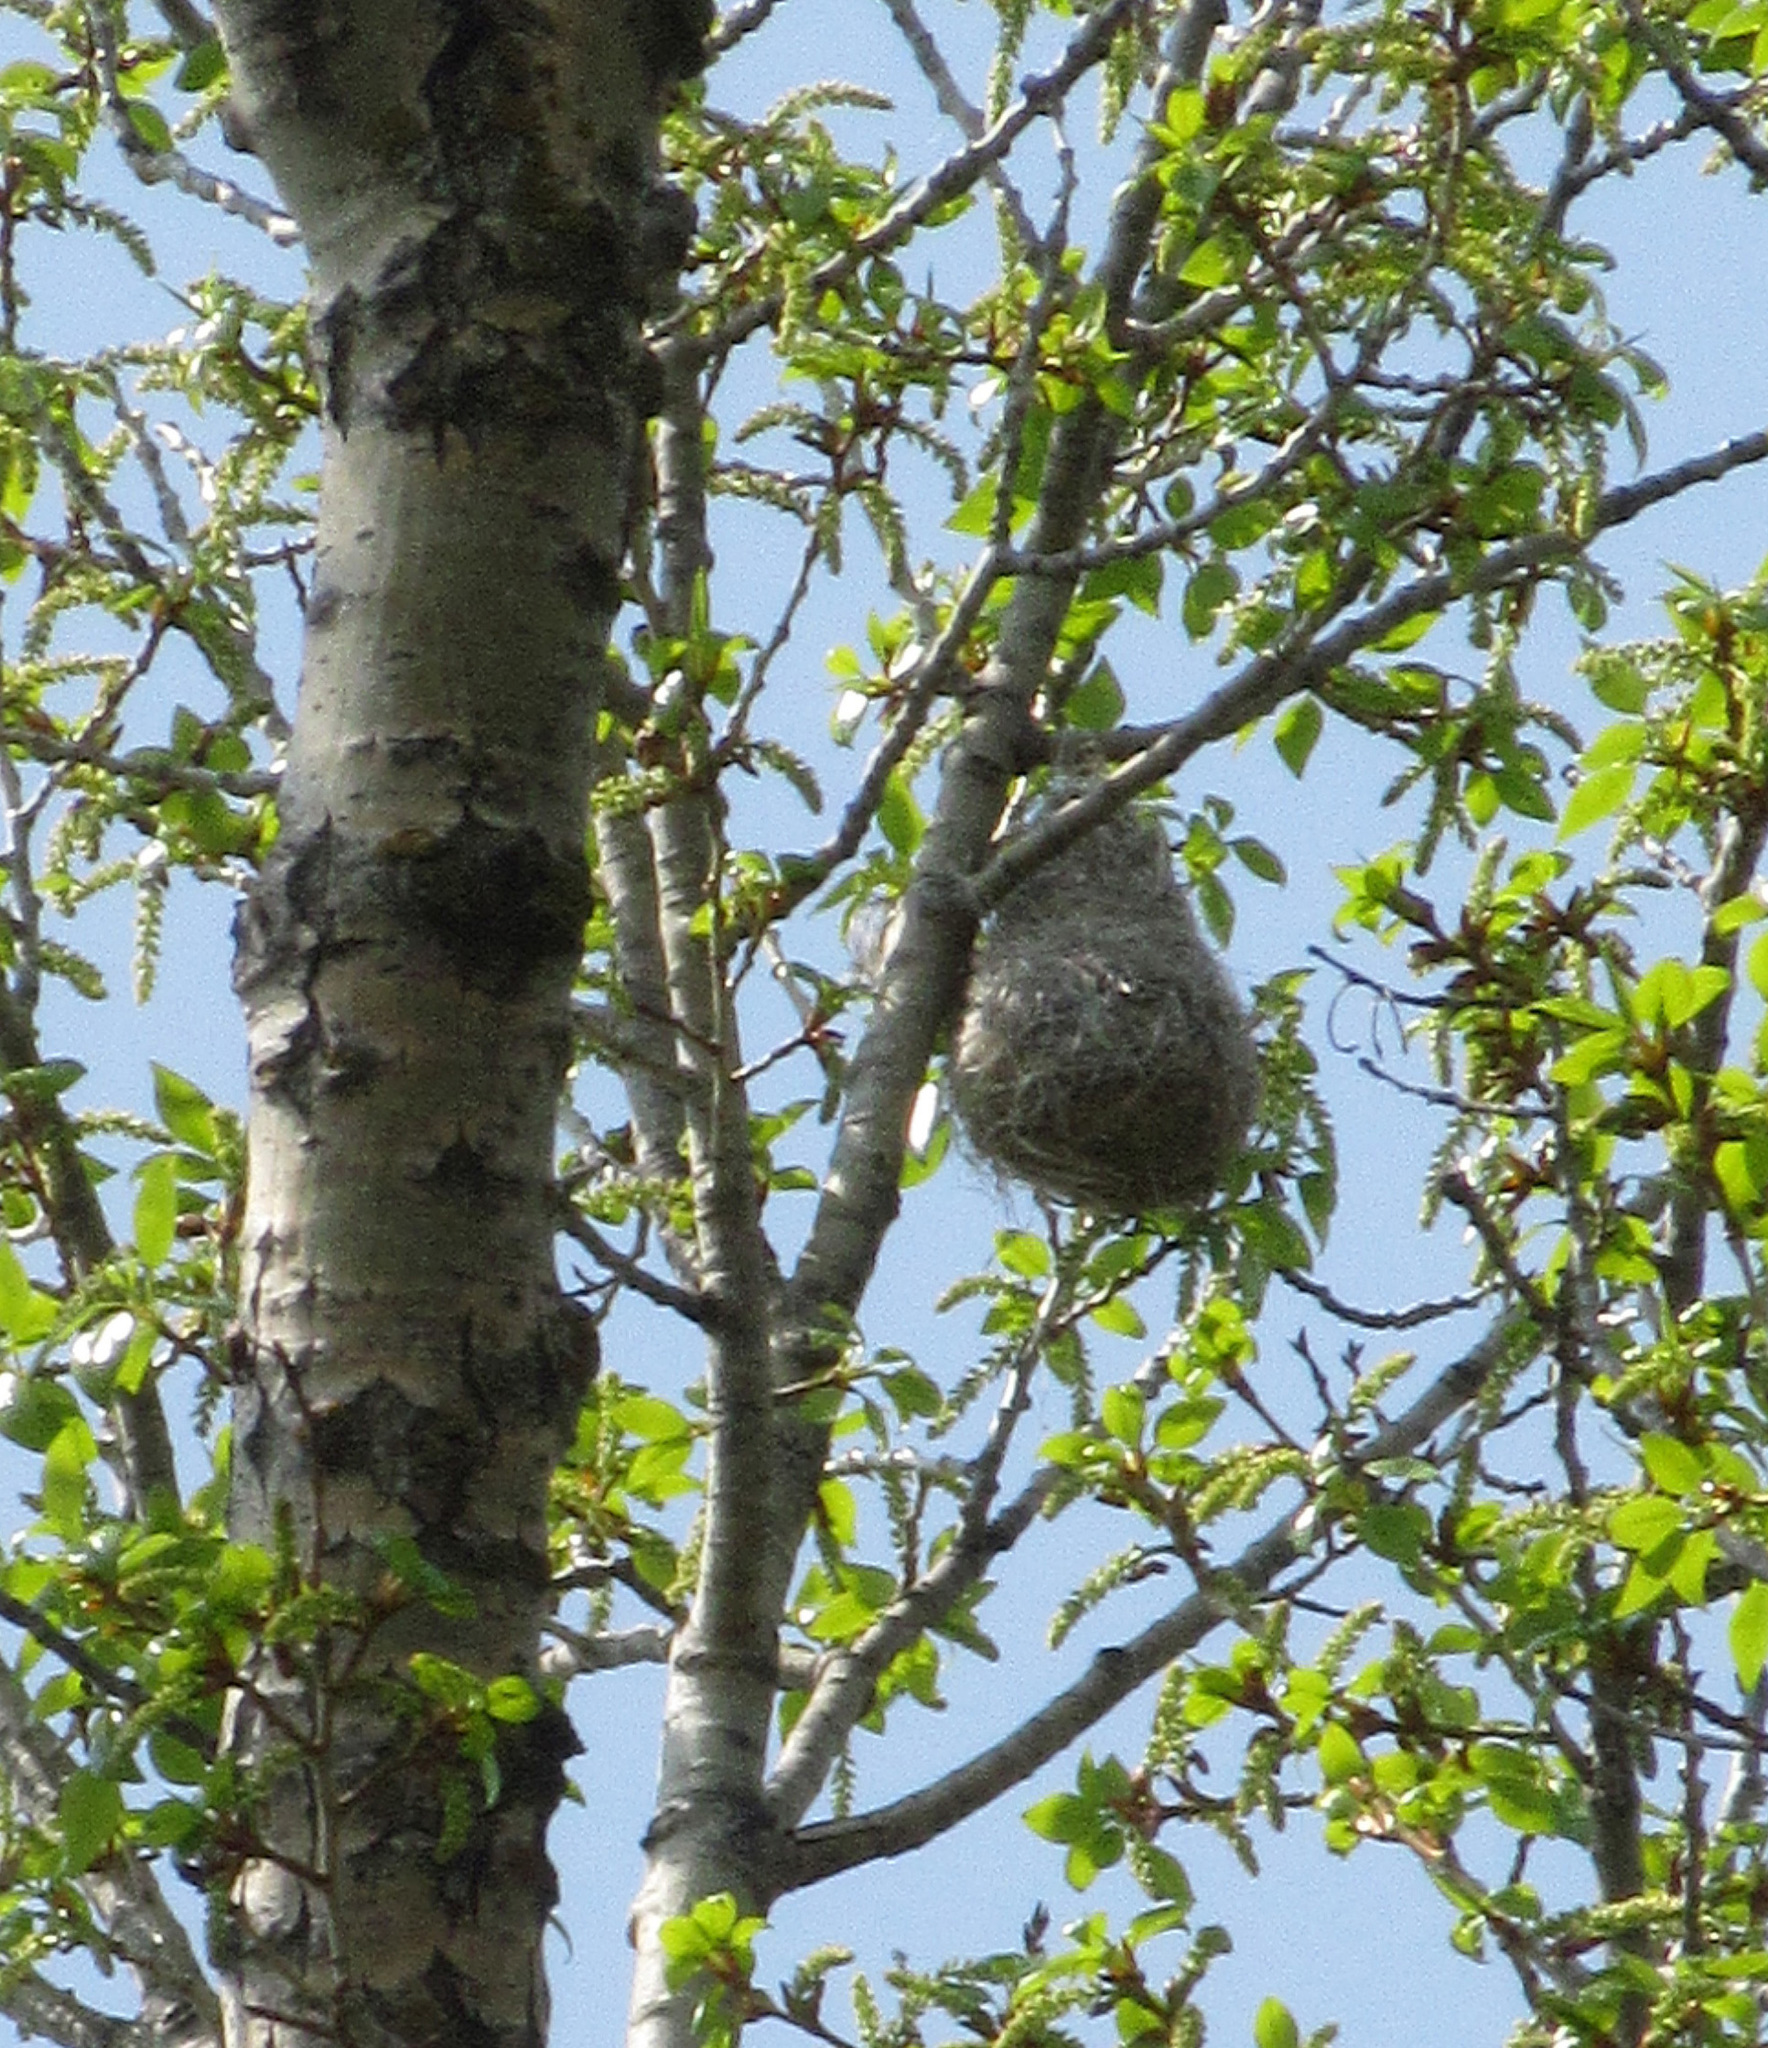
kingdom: Animalia
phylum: Chordata
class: Aves
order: Passeriformes
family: Icteridae
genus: Icterus
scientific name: Icterus galbula
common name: Baltimore oriole
